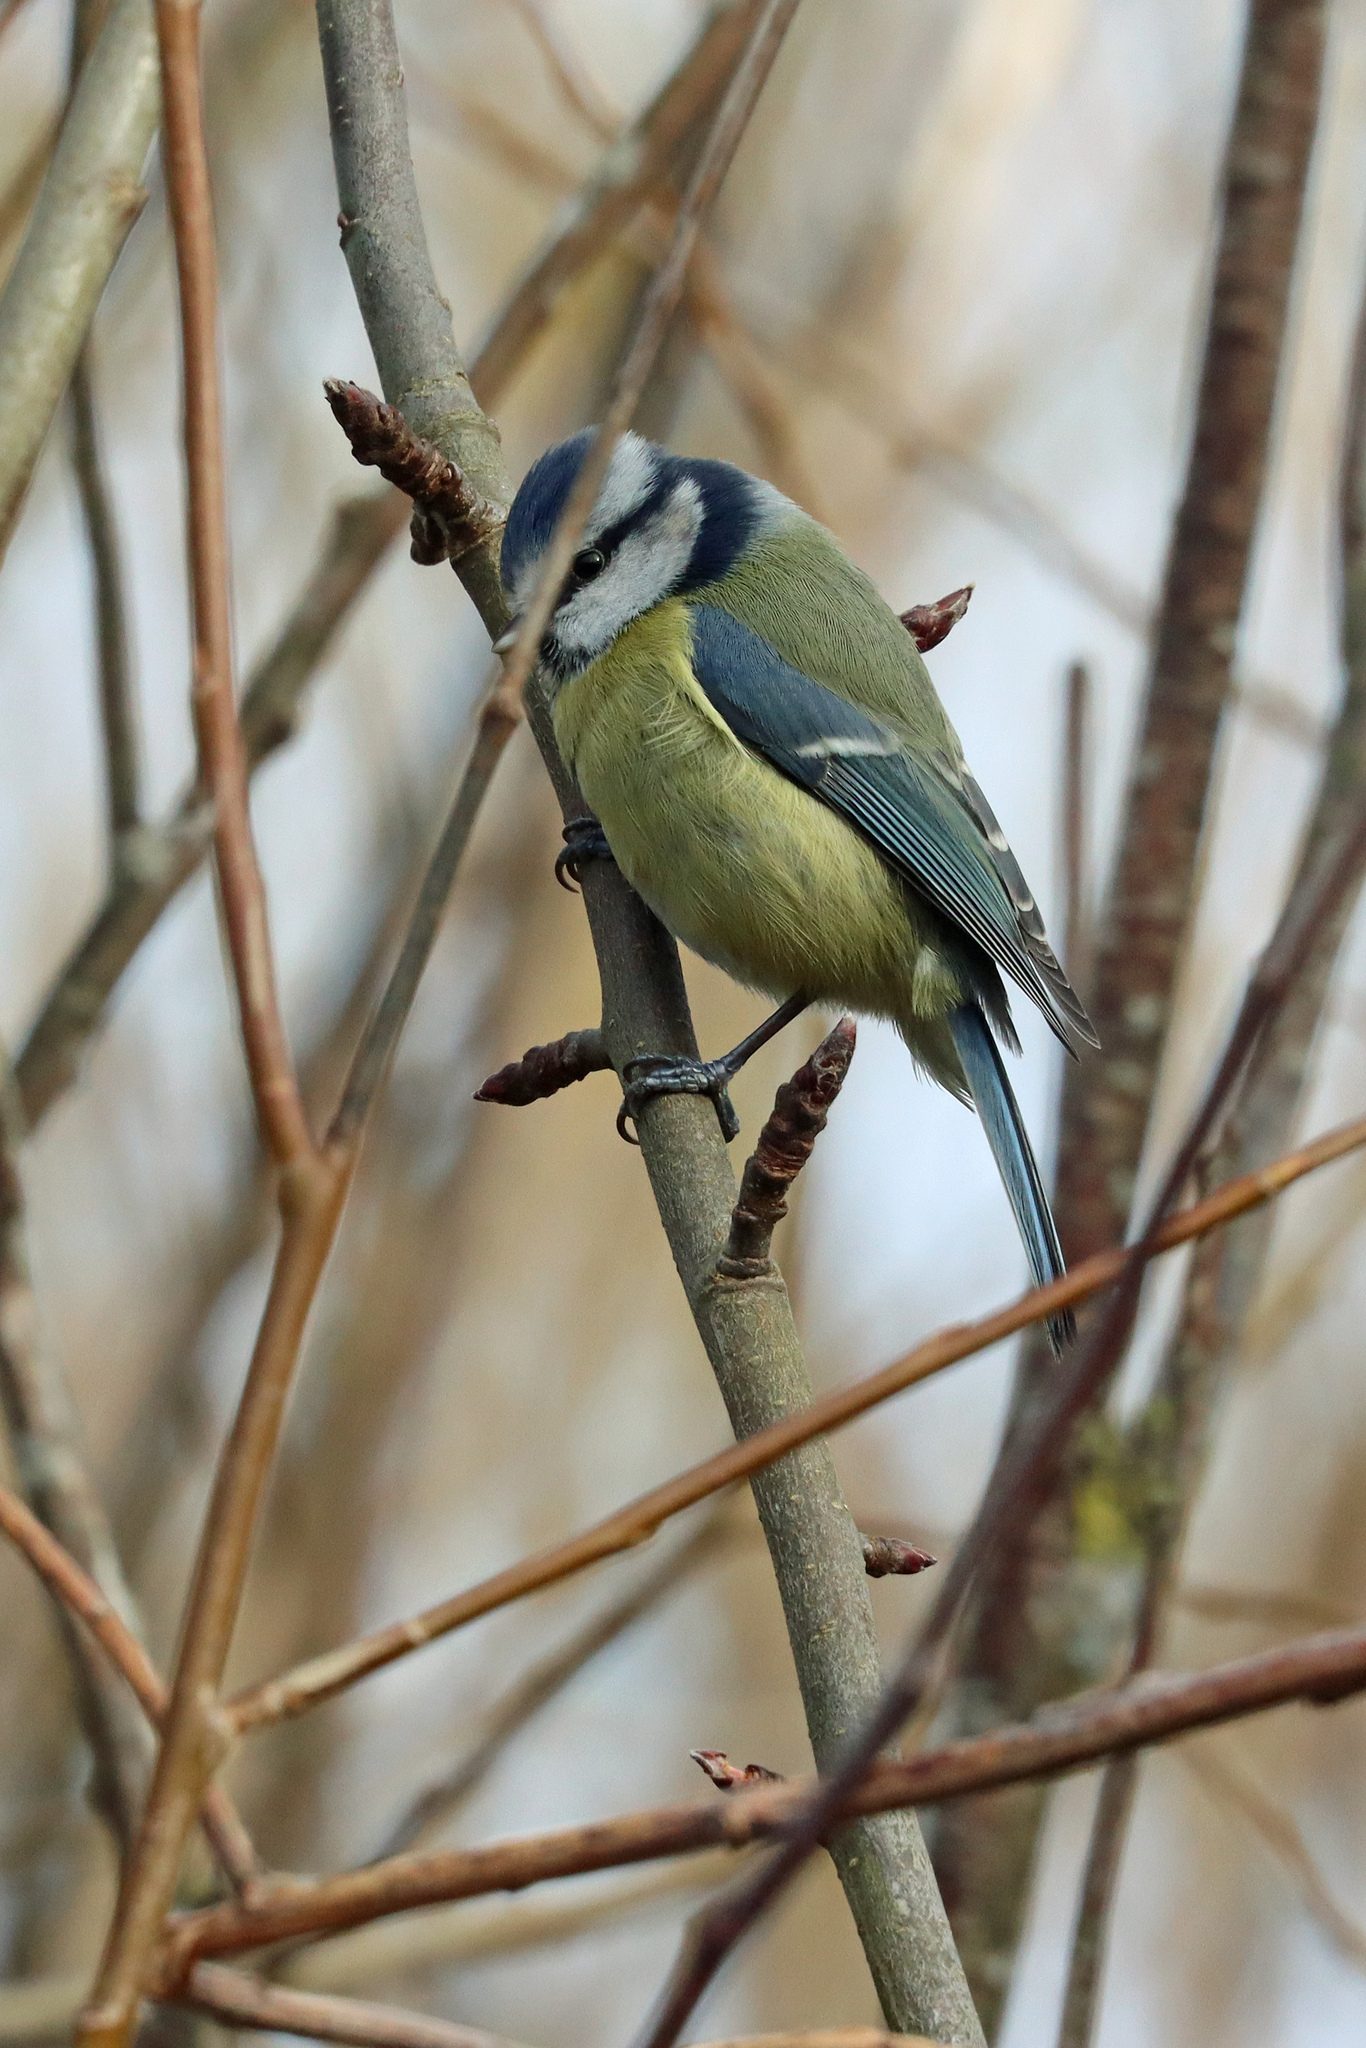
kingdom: Animalia
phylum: Chordata
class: Aves
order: Passeriformes
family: Paridae
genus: Cyanistes
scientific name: Cyanistes caeruleus
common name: Eurasian blue tit
